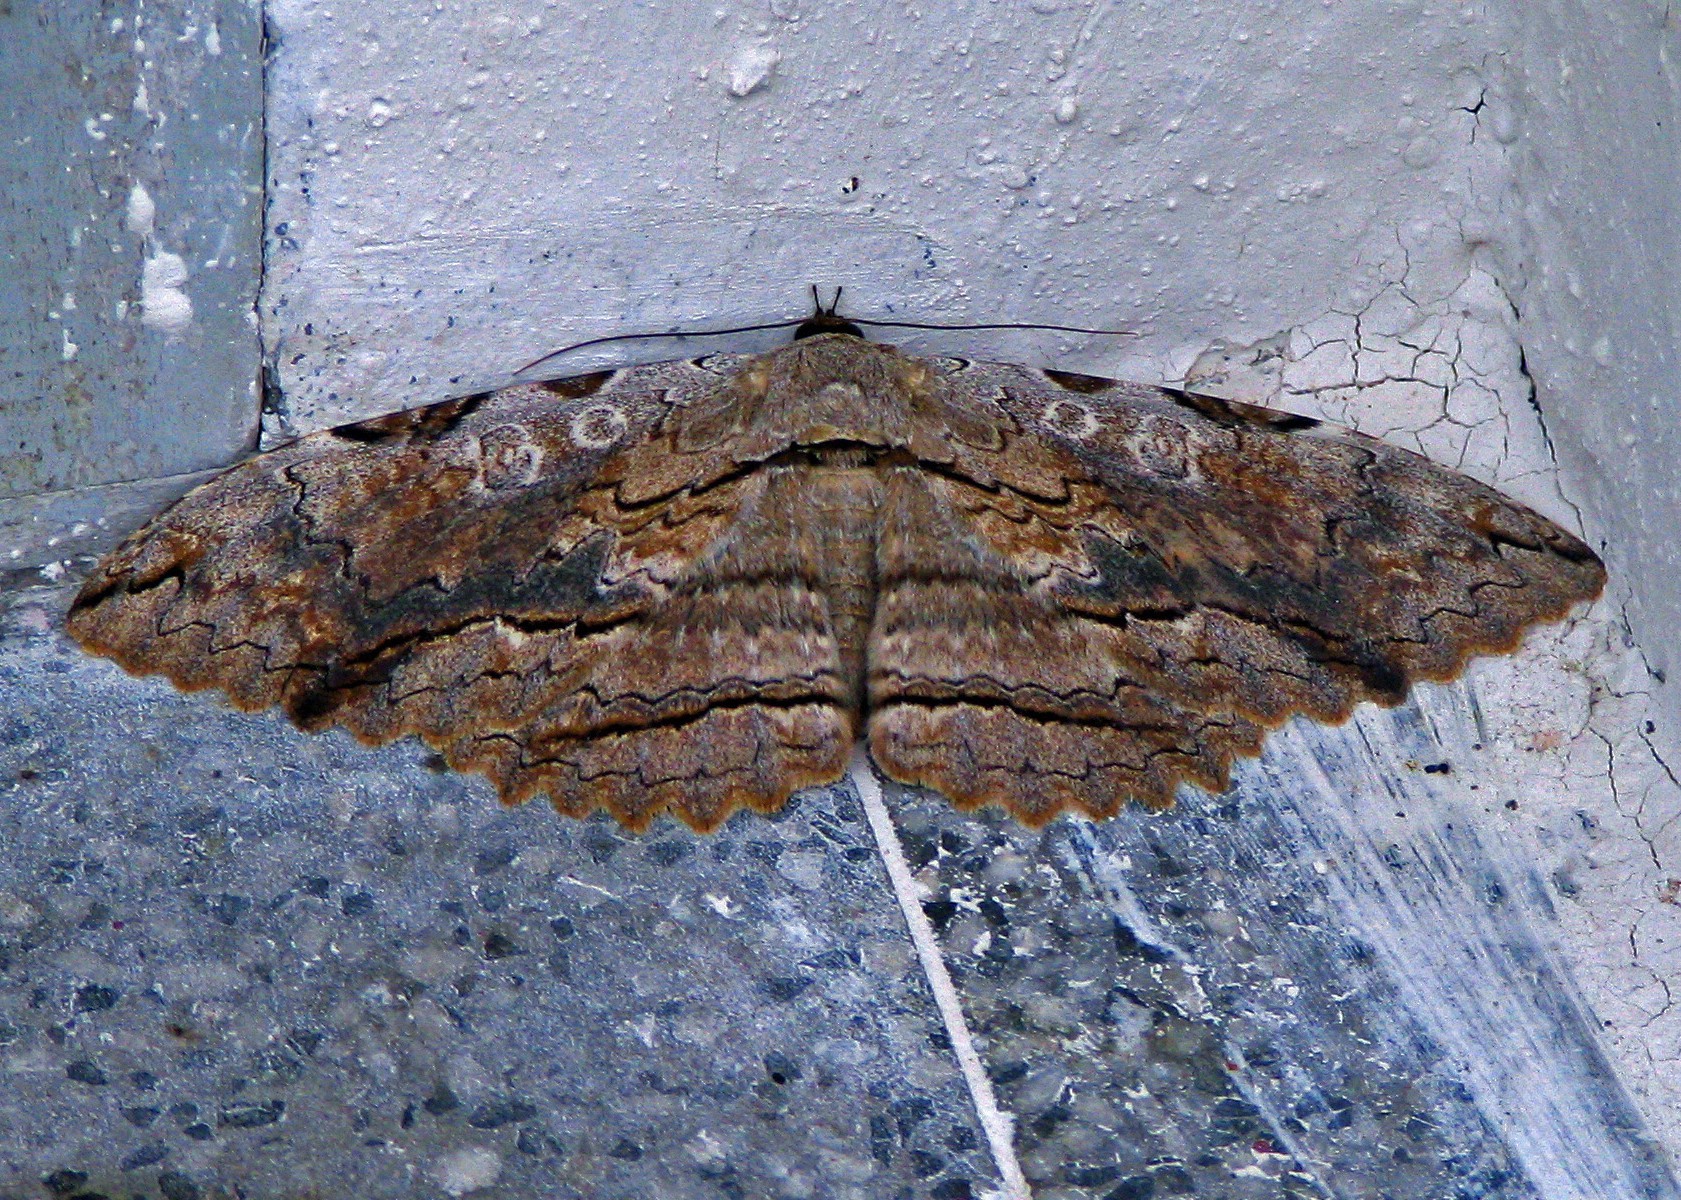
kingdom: Animalia
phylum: Arthropoda
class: Insecta
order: Lepidoptera
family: Erebidae
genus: Thysania
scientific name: Thysania zenobia
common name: Owl moth
